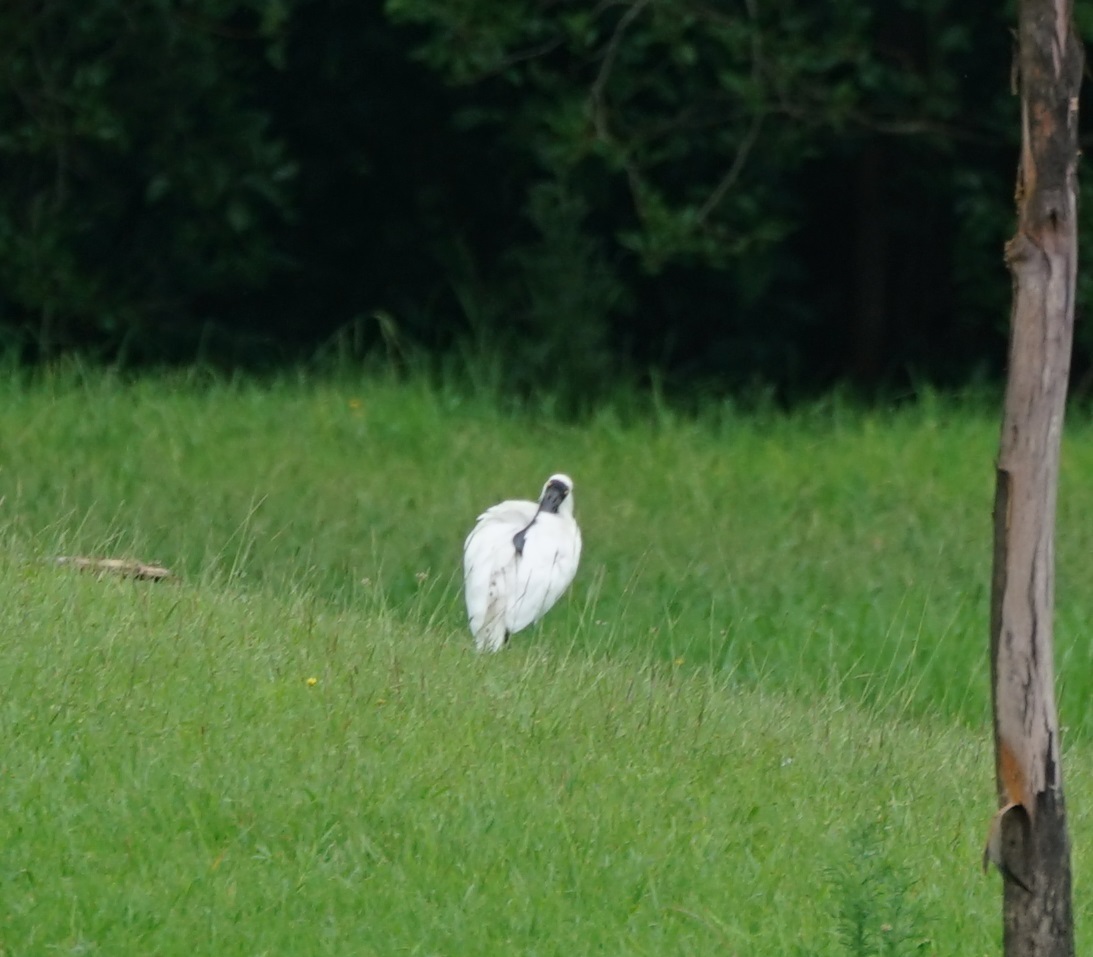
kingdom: Animalia
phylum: Chordata
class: Aves
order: Pelecaniformes
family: Threskiornithidae
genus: Platalea
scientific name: Platalea regia
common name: Royal spoonbill
